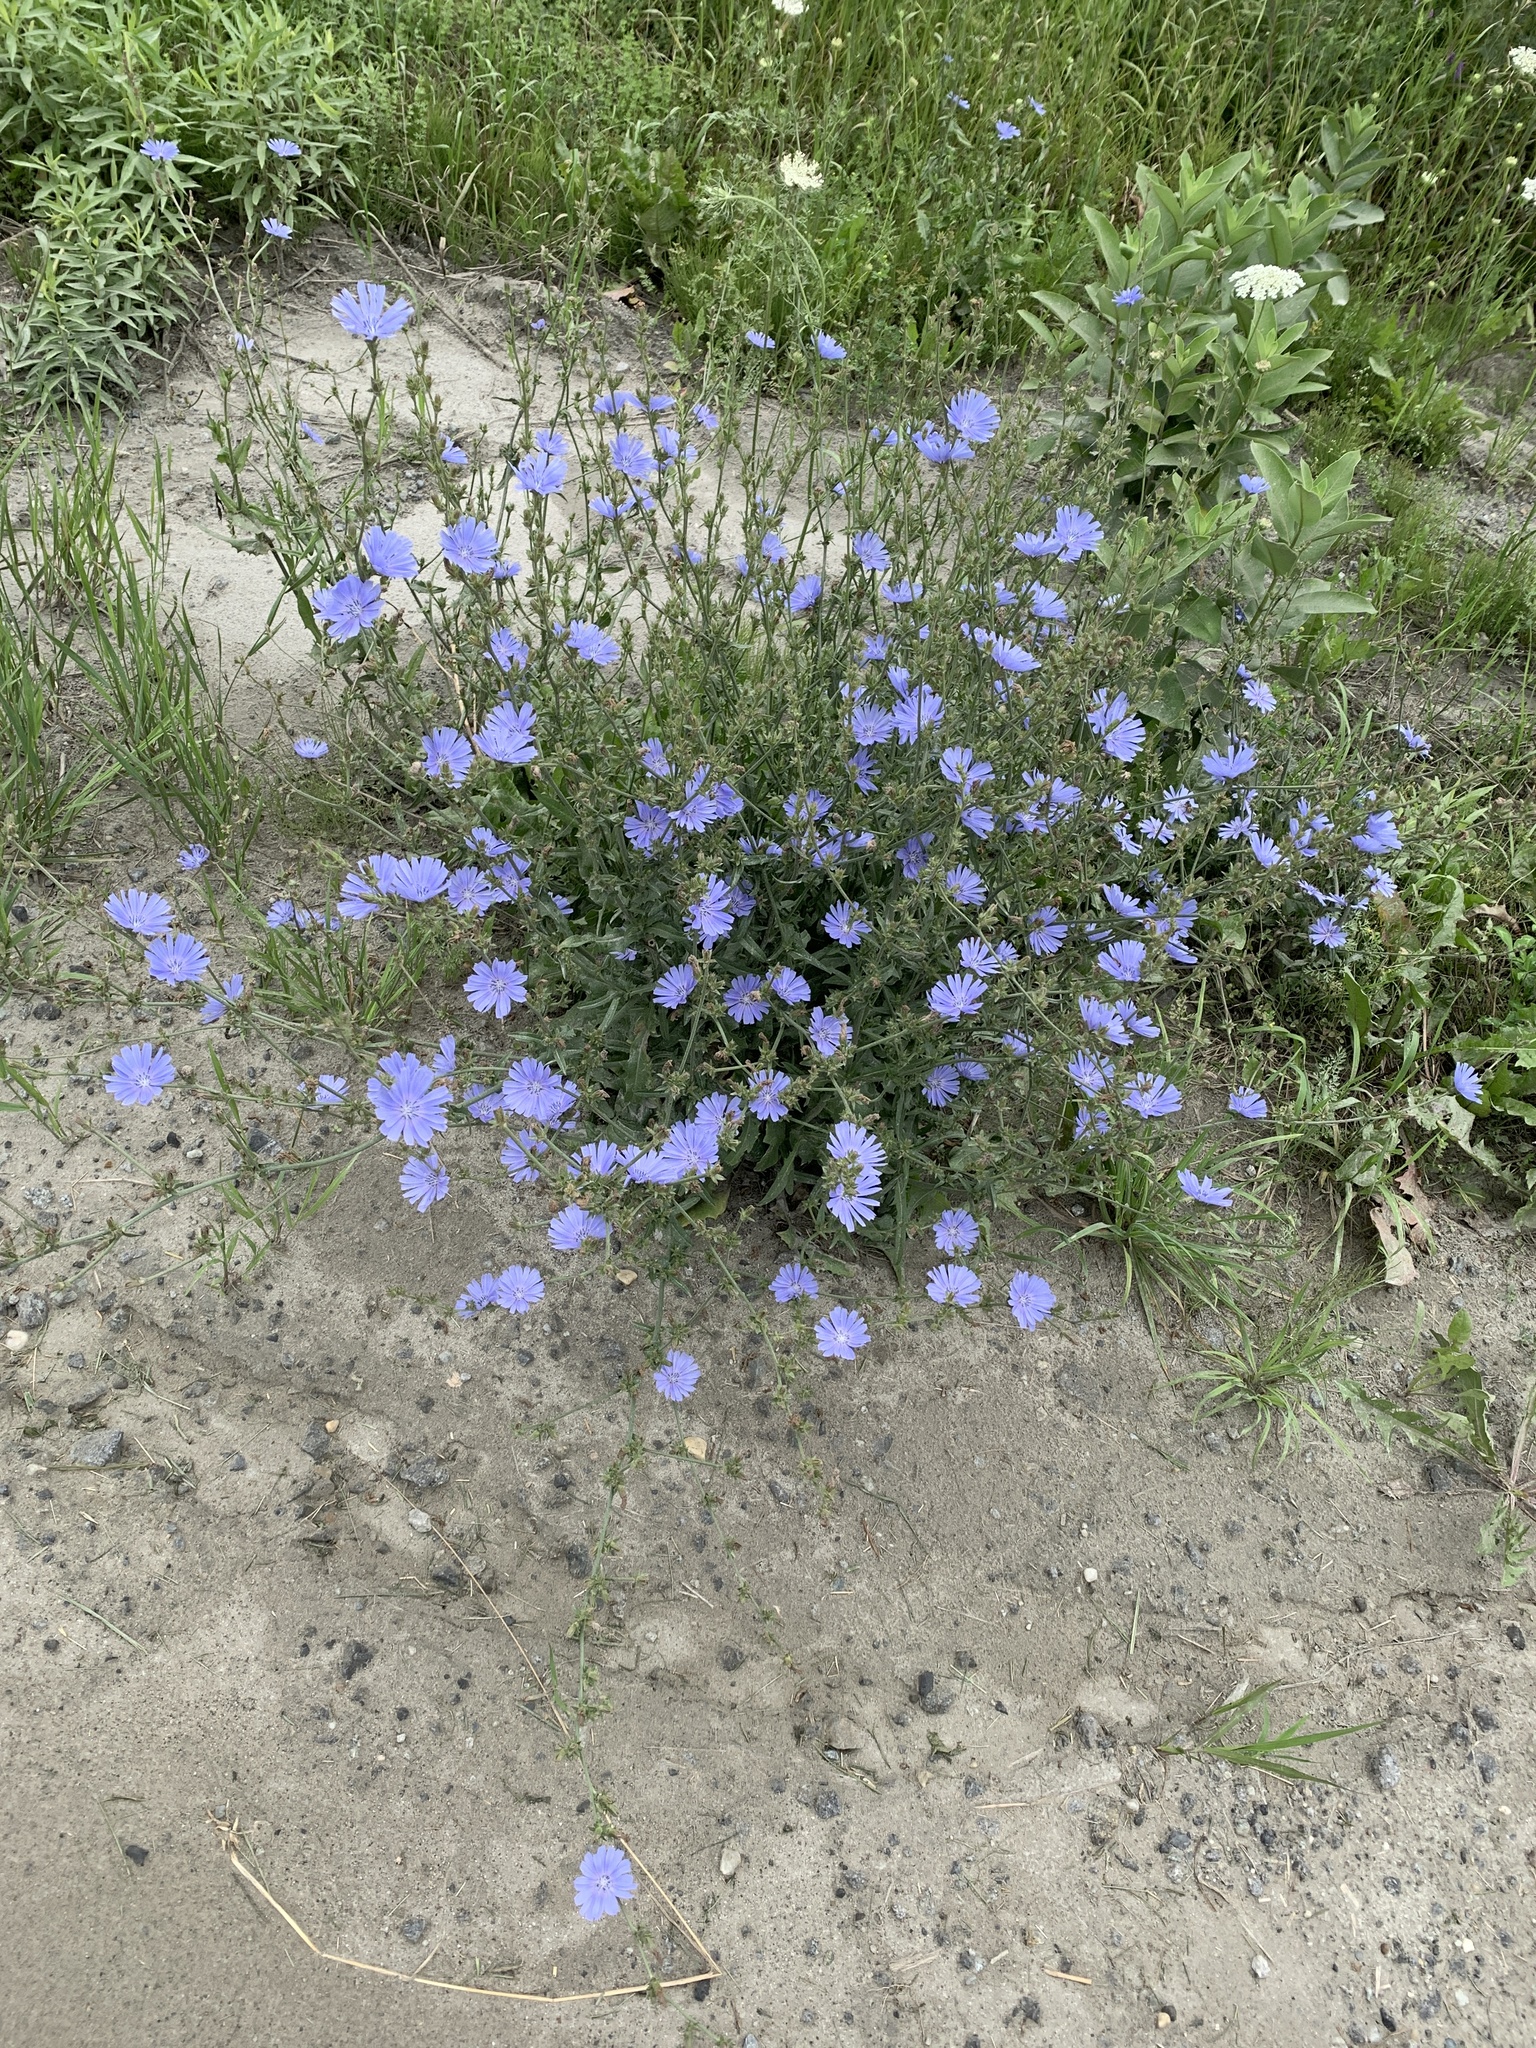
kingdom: Plantae
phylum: Tracheophyta
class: Magnoliopsida
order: Asterales
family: Asteraceae
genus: Cichorium
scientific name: Cichorium intybus
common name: Chicory
